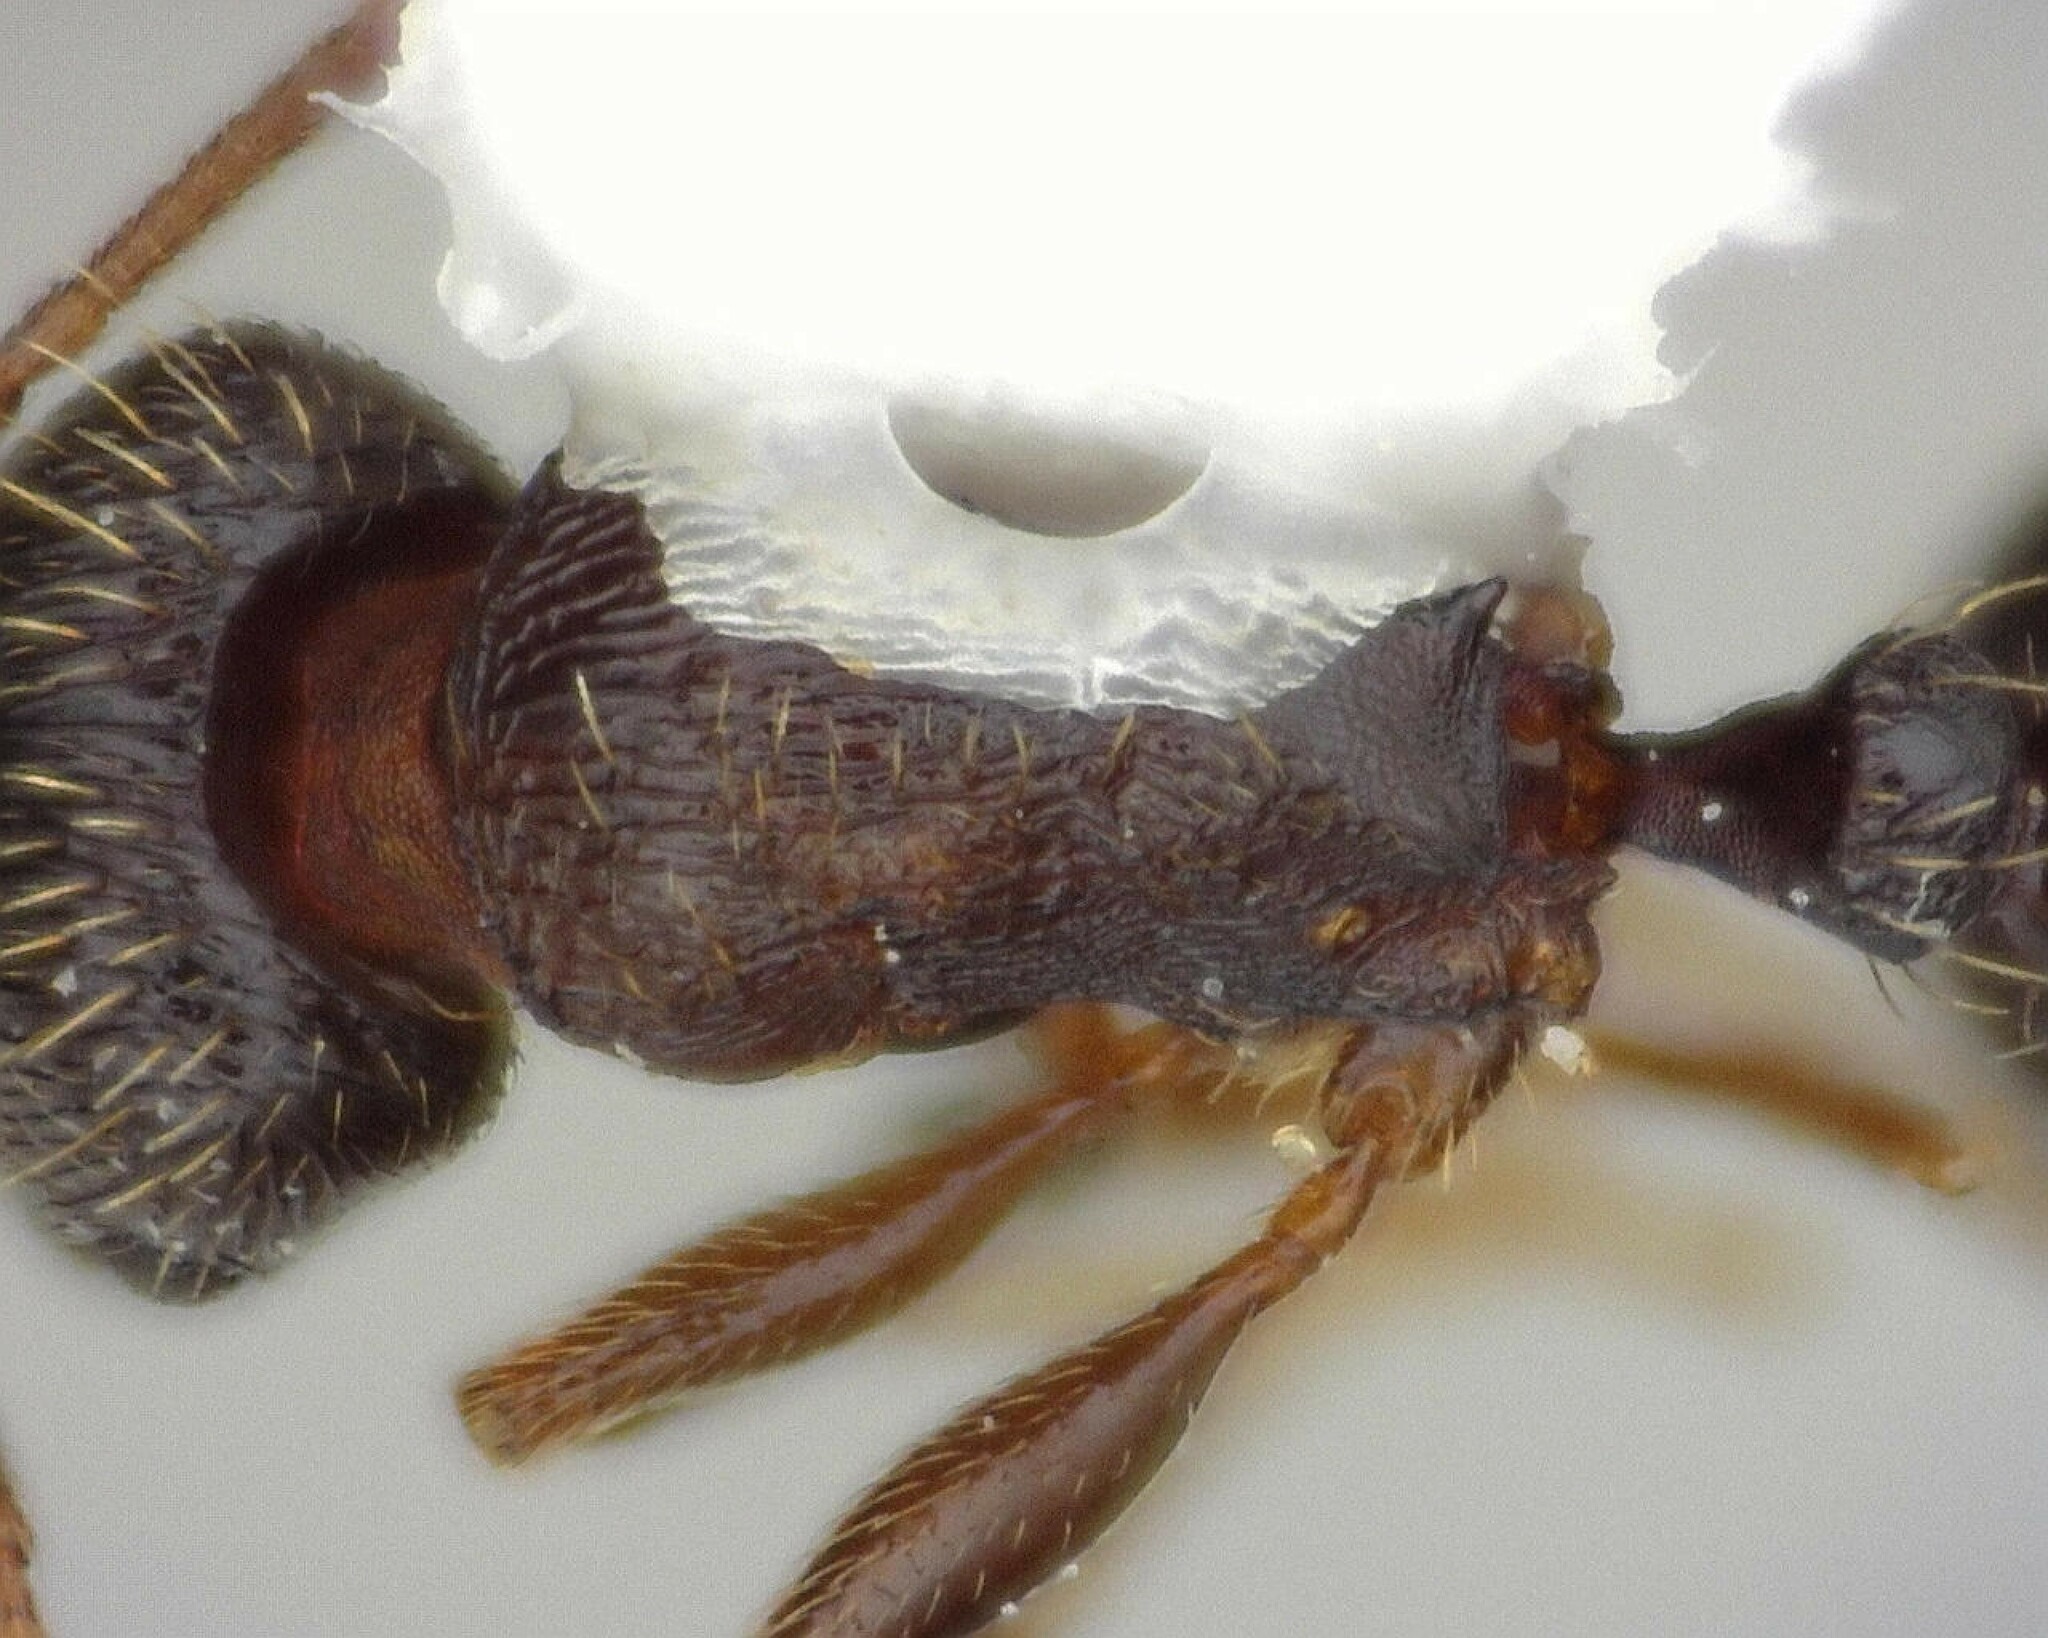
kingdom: Animalia
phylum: Arthropoda
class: Insecta
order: Hymenoptera
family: Formicidae
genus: Tetramorium
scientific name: Tetramorium immigrans
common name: Pavement ant
